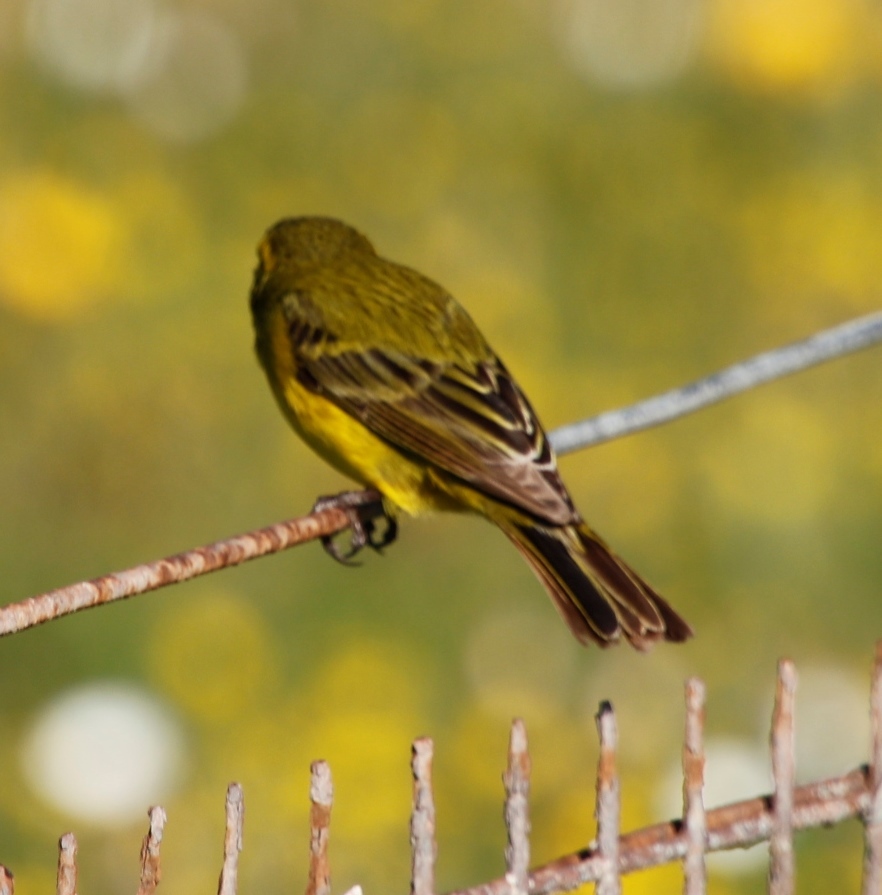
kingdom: Animalia
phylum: Chordata
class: Aves
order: Passeriformes
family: Fringillidae
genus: Crithagra
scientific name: Crithagra flaviventris
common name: Yellow canary
